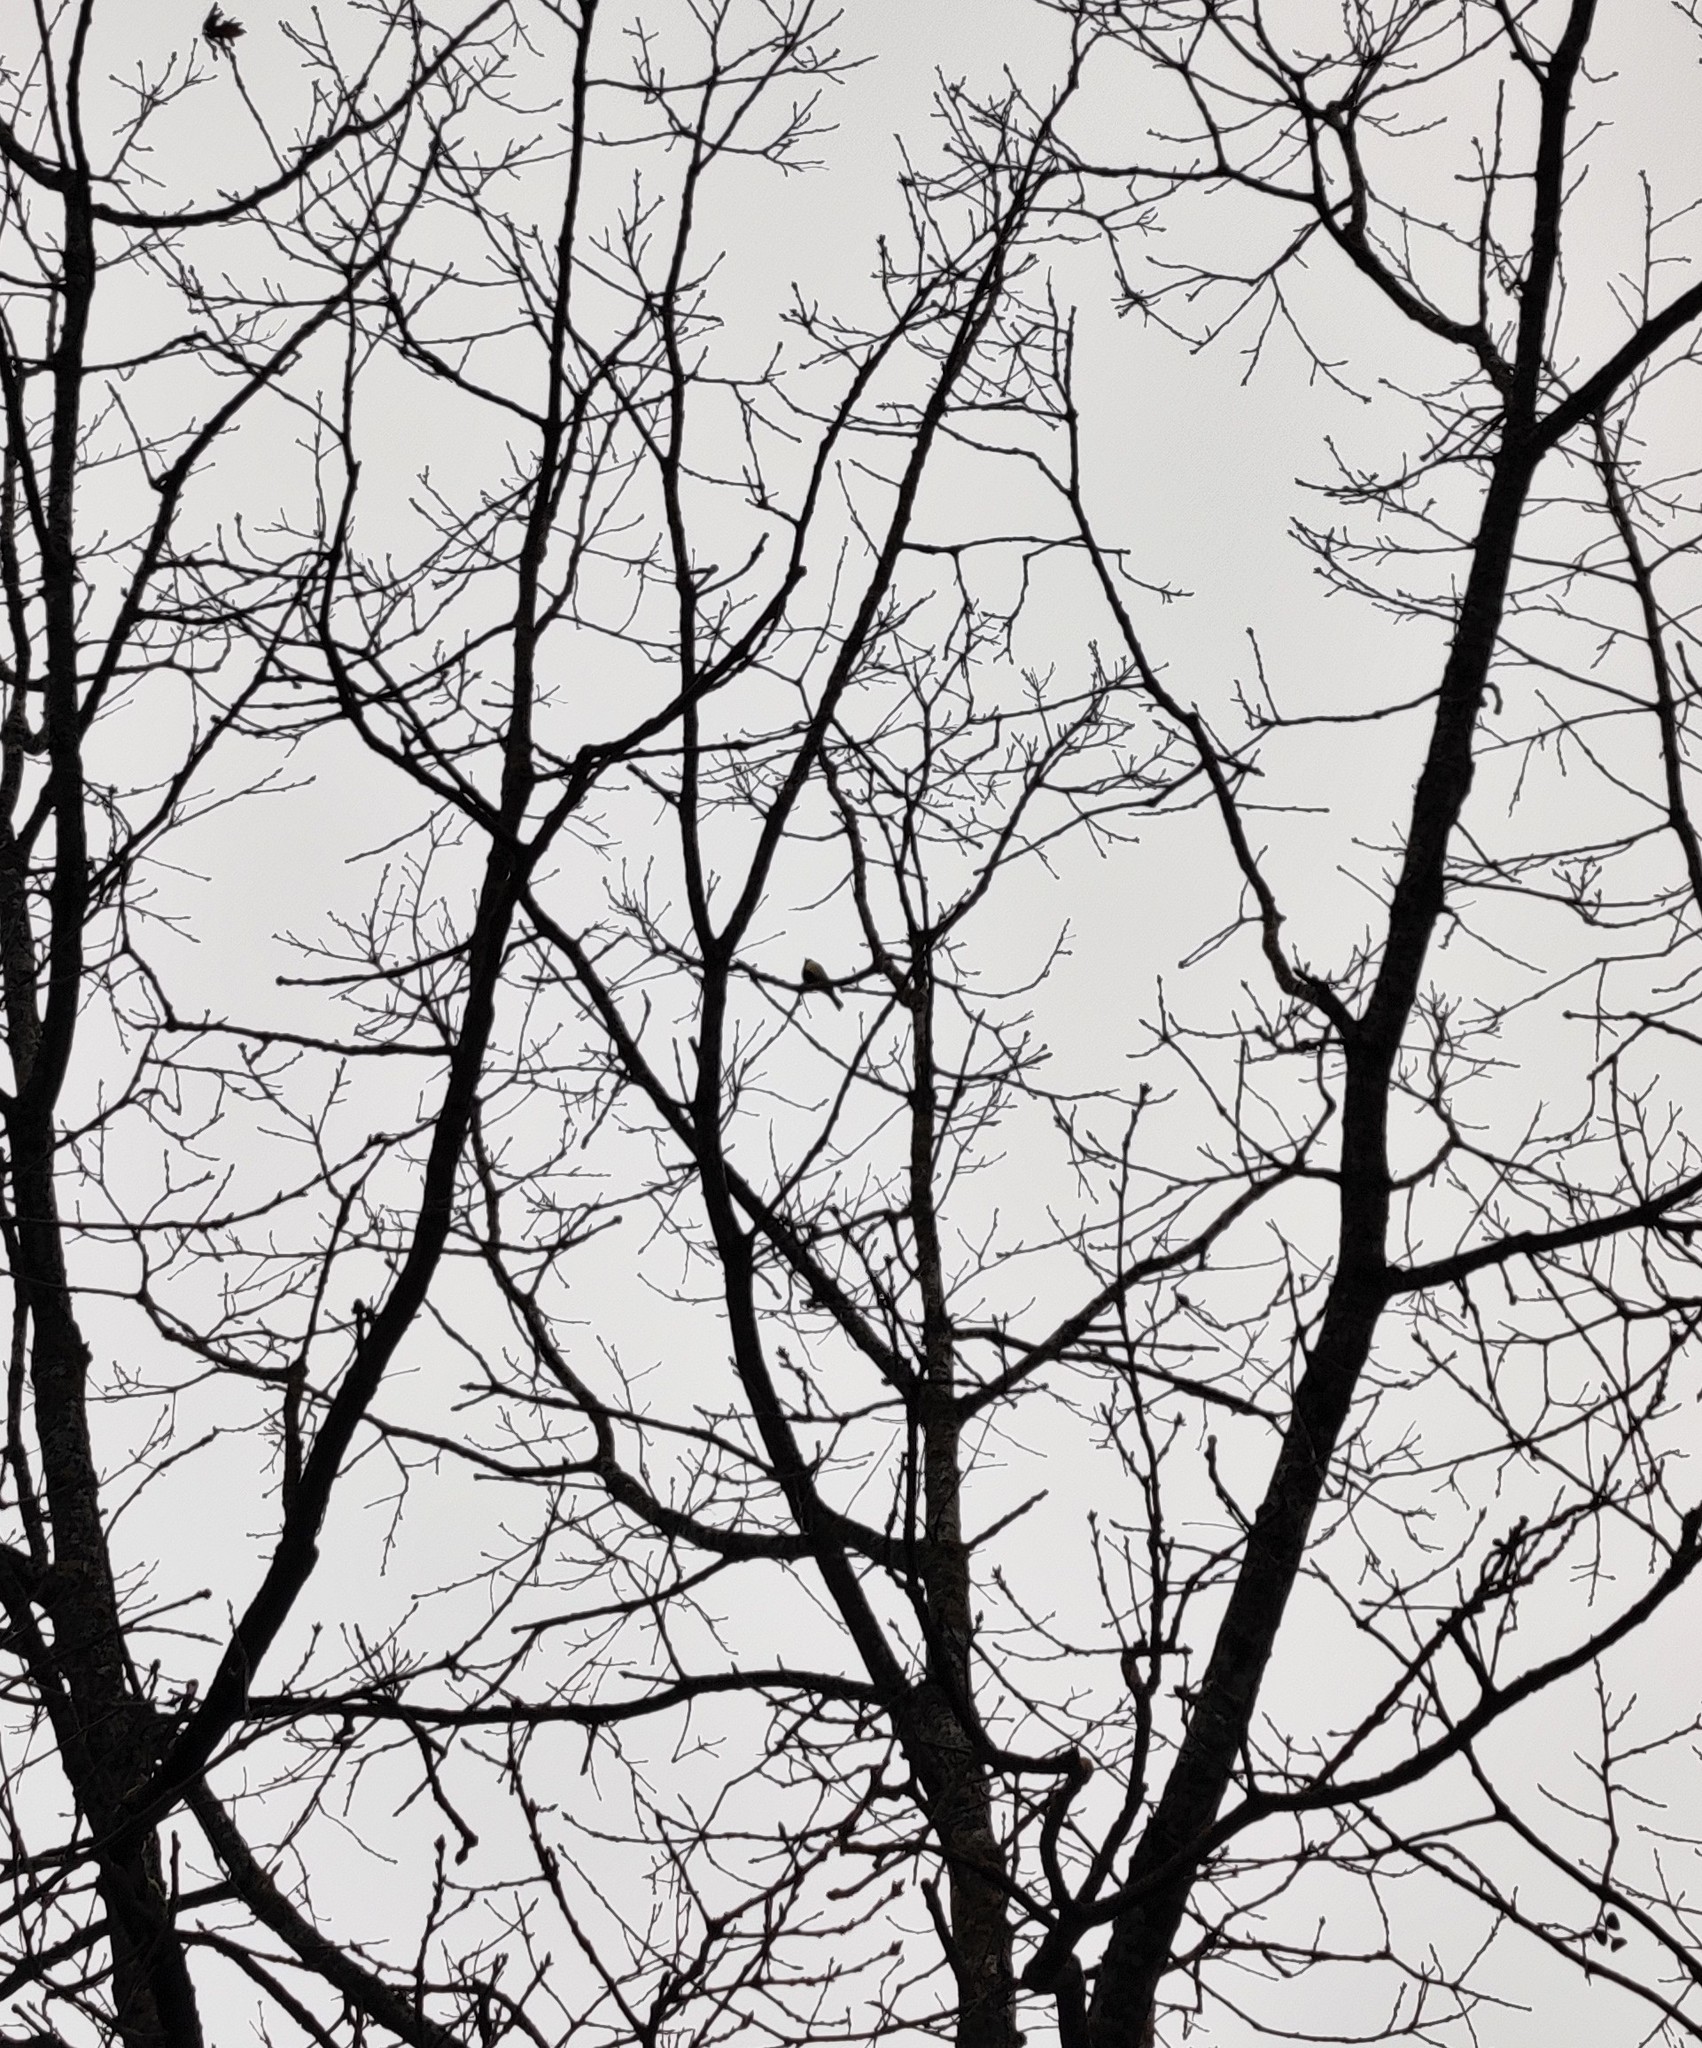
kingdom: Animalia
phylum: Chordata
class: Aves
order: Passeriformes
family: Paridae
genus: Parus
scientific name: Parus major
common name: Great tit
